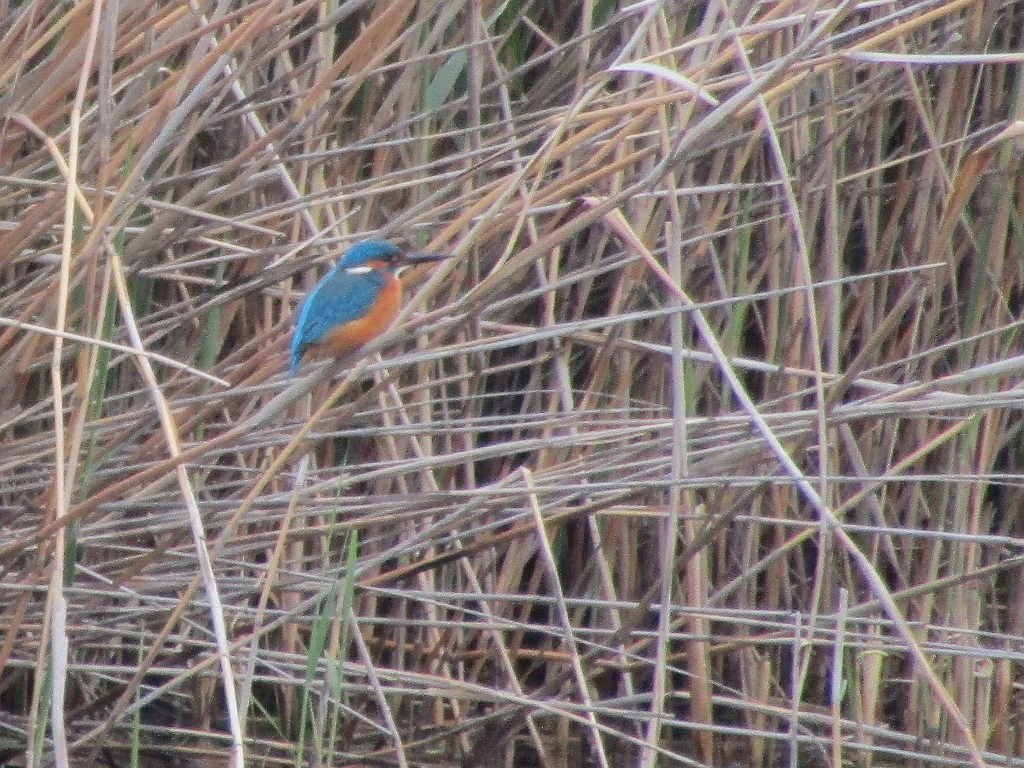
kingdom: Animalia
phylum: Chordata
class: Aves
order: Coraciiformes
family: Alcedinidae
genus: Alcedo
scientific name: Alcedo atthis
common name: Common kingfisher
